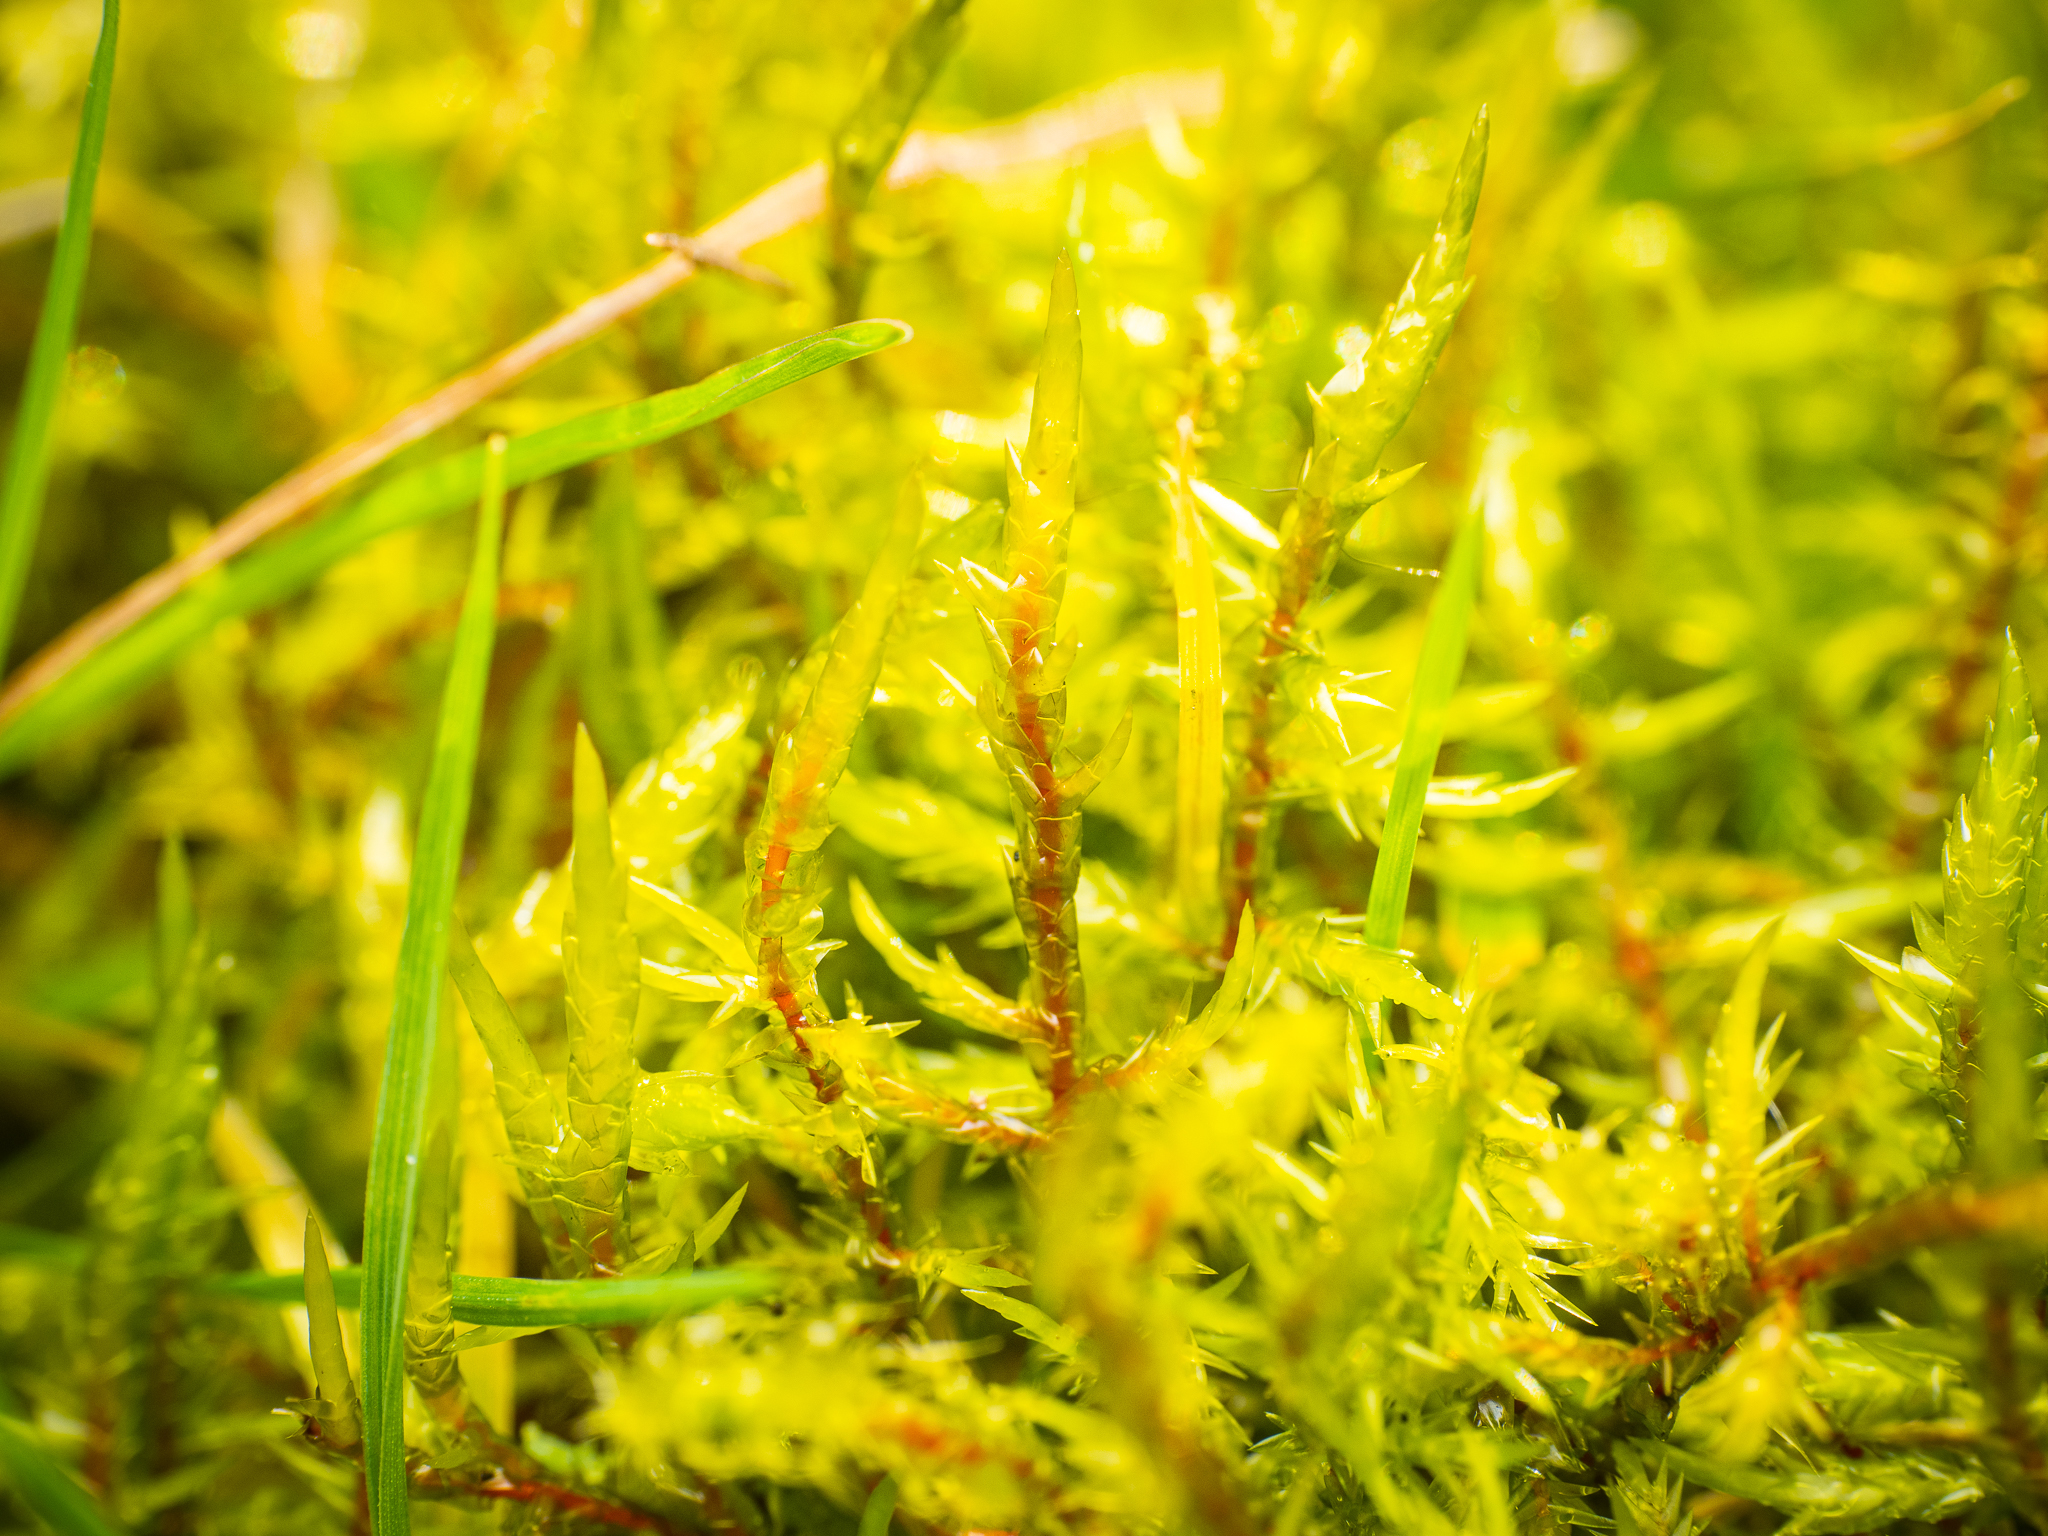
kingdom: Plantae
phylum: Bryophyta
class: Bryopsida
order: Hypnales
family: Pylaisiaceae
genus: Calliergonella
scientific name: Calliergonella cuspidata
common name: Common large wetland moss
